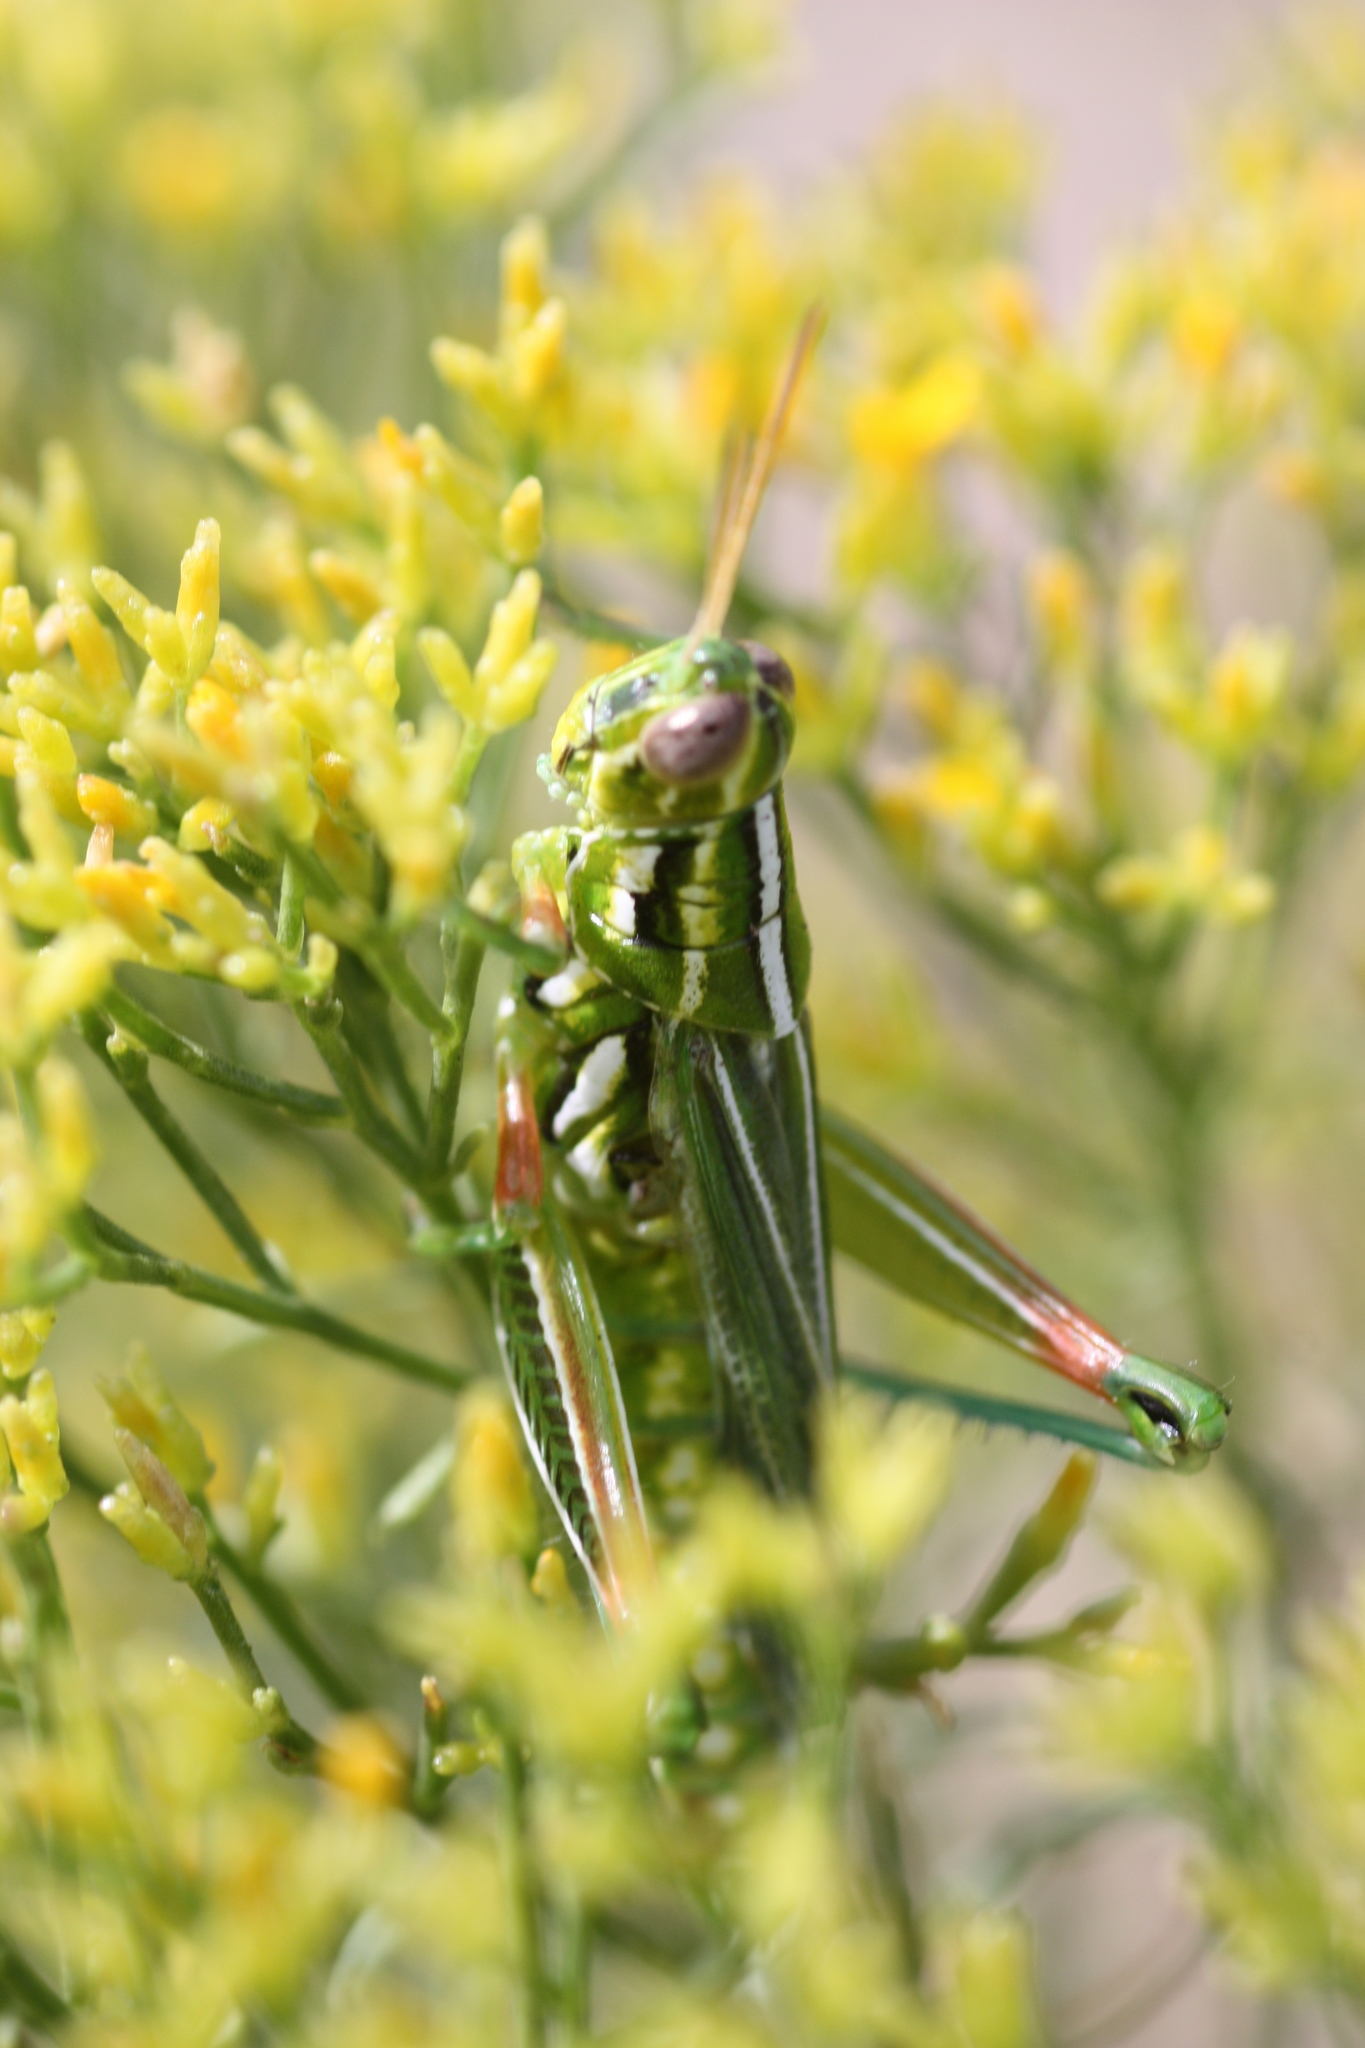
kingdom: Animalia
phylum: Arthropoda
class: Insecta
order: Orthoptera
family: Acrididae
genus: Hesperotettix
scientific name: Hesperotettix viridis
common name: Meadow purple-striped grasshopper
